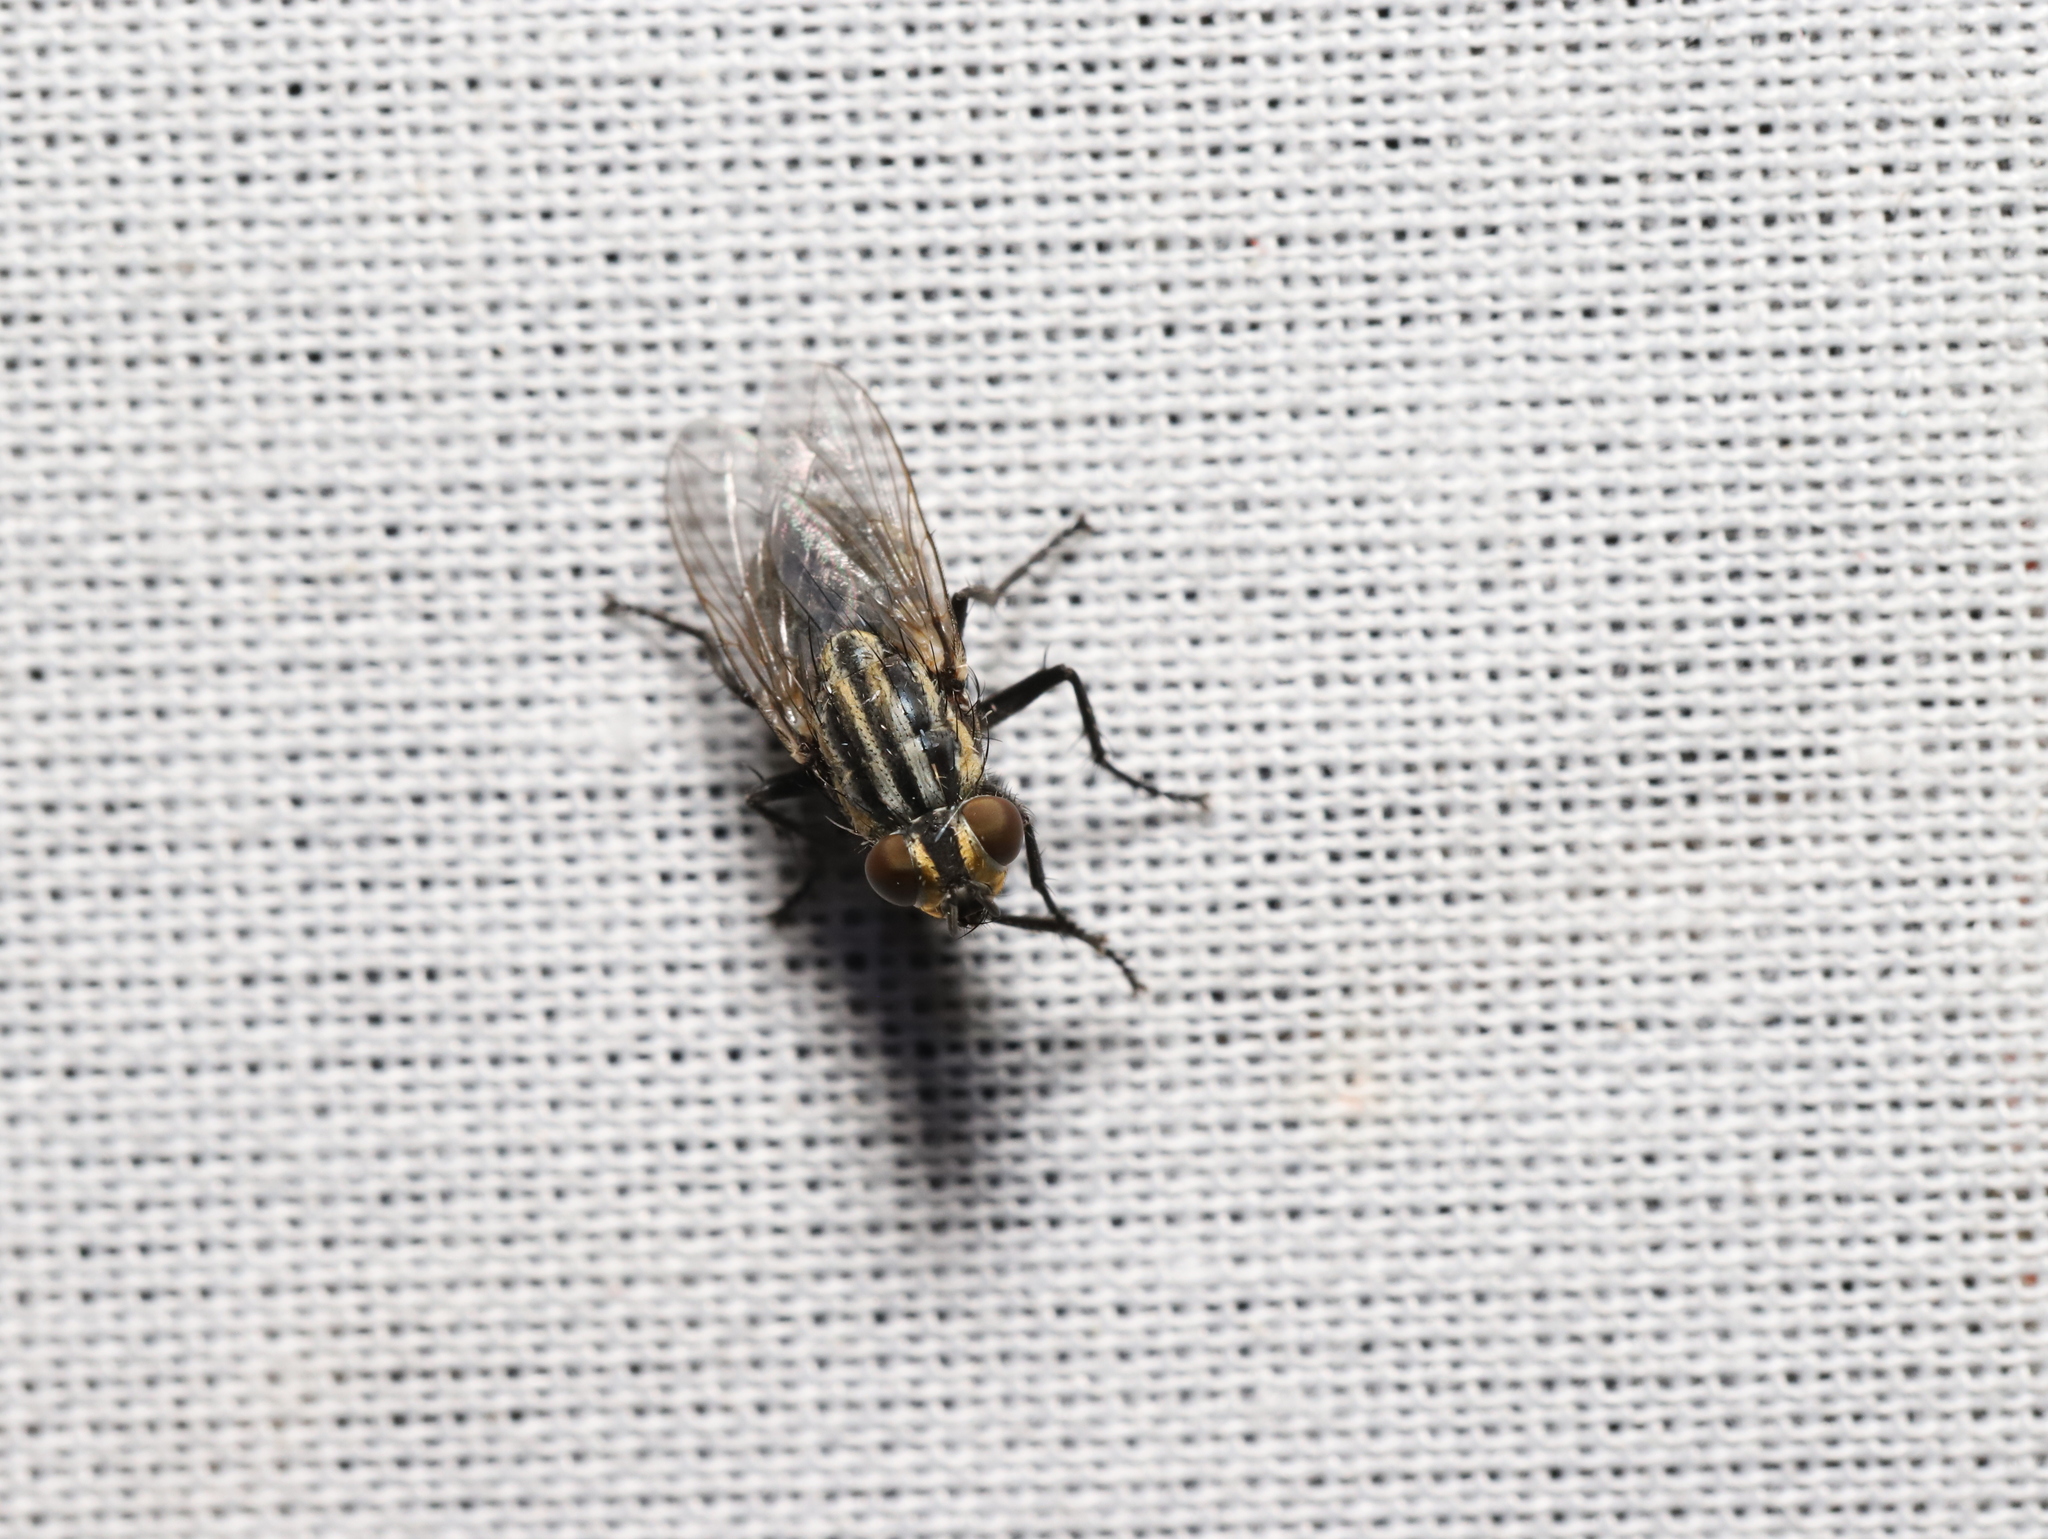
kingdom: Animalia
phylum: Arthropoda
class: Insecta
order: Diptera
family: Sarcophagidae
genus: Oxysarcodexia
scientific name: Oxysarcodexia varia
